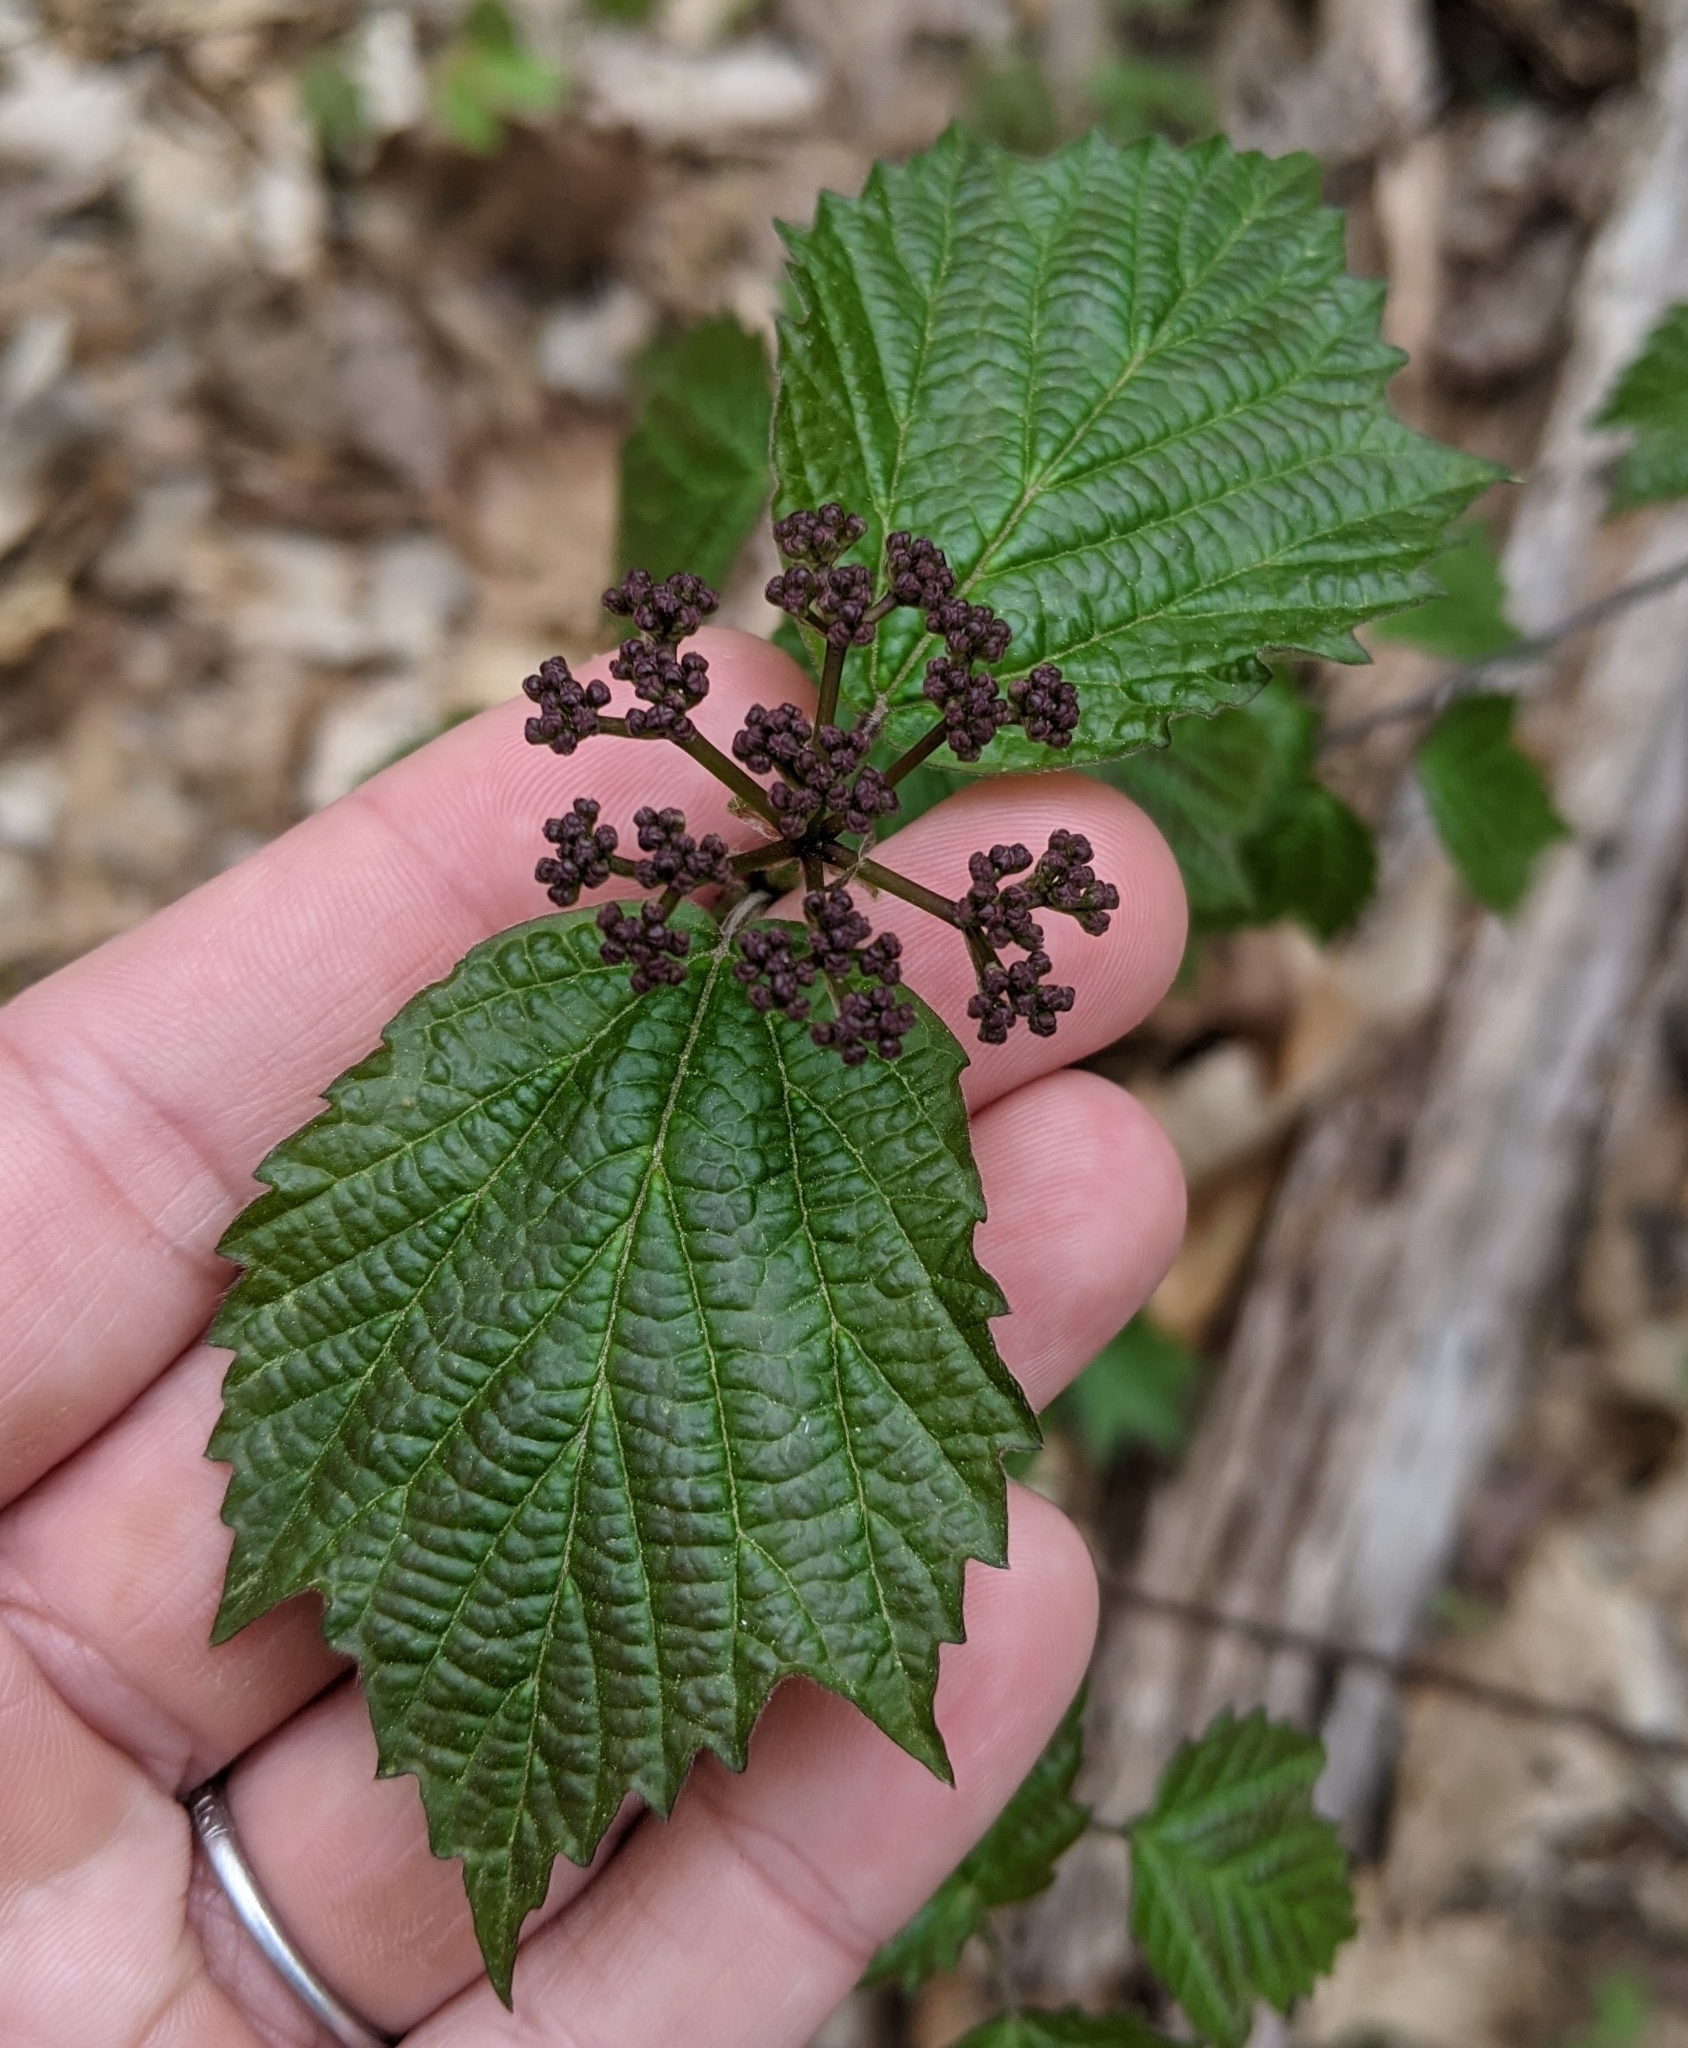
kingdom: Plantae
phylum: Tracheophyta
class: Magnoliopsida
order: Dipsacales
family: Viburnaceae
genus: Viburnum
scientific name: Viburnum acerifolium
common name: Dockmackie
